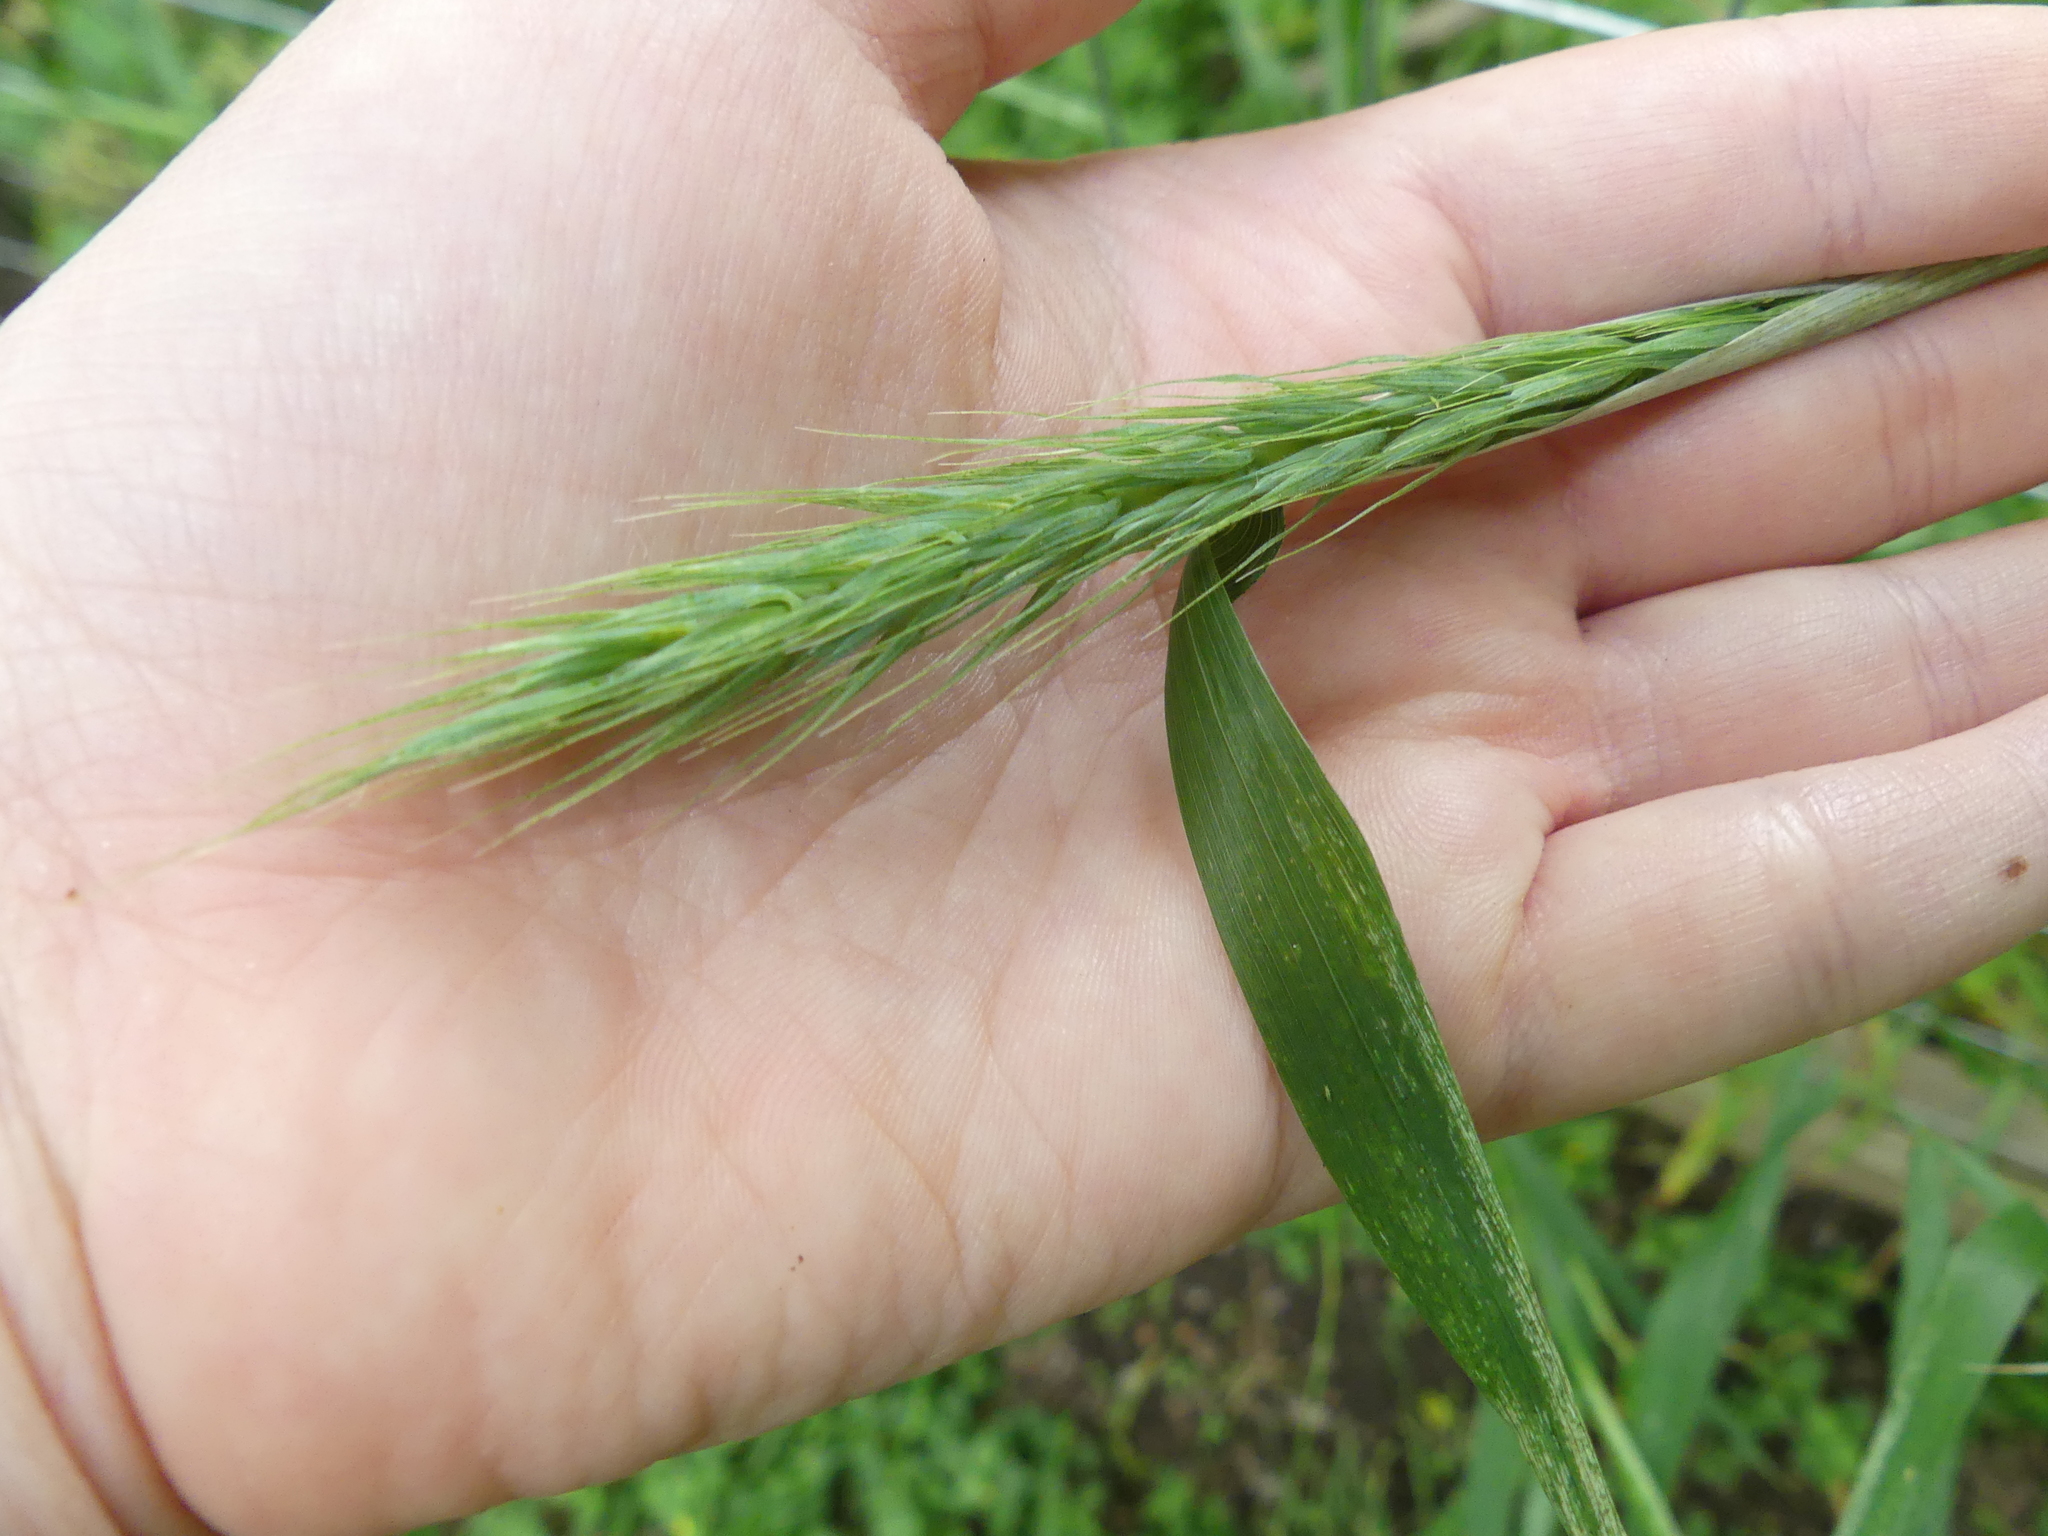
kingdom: Plantae
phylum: Tracheophyta
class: Liliopsida
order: Poales
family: Poaceae
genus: Elymus
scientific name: Elymus virginicus
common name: Common eastern wildrye
